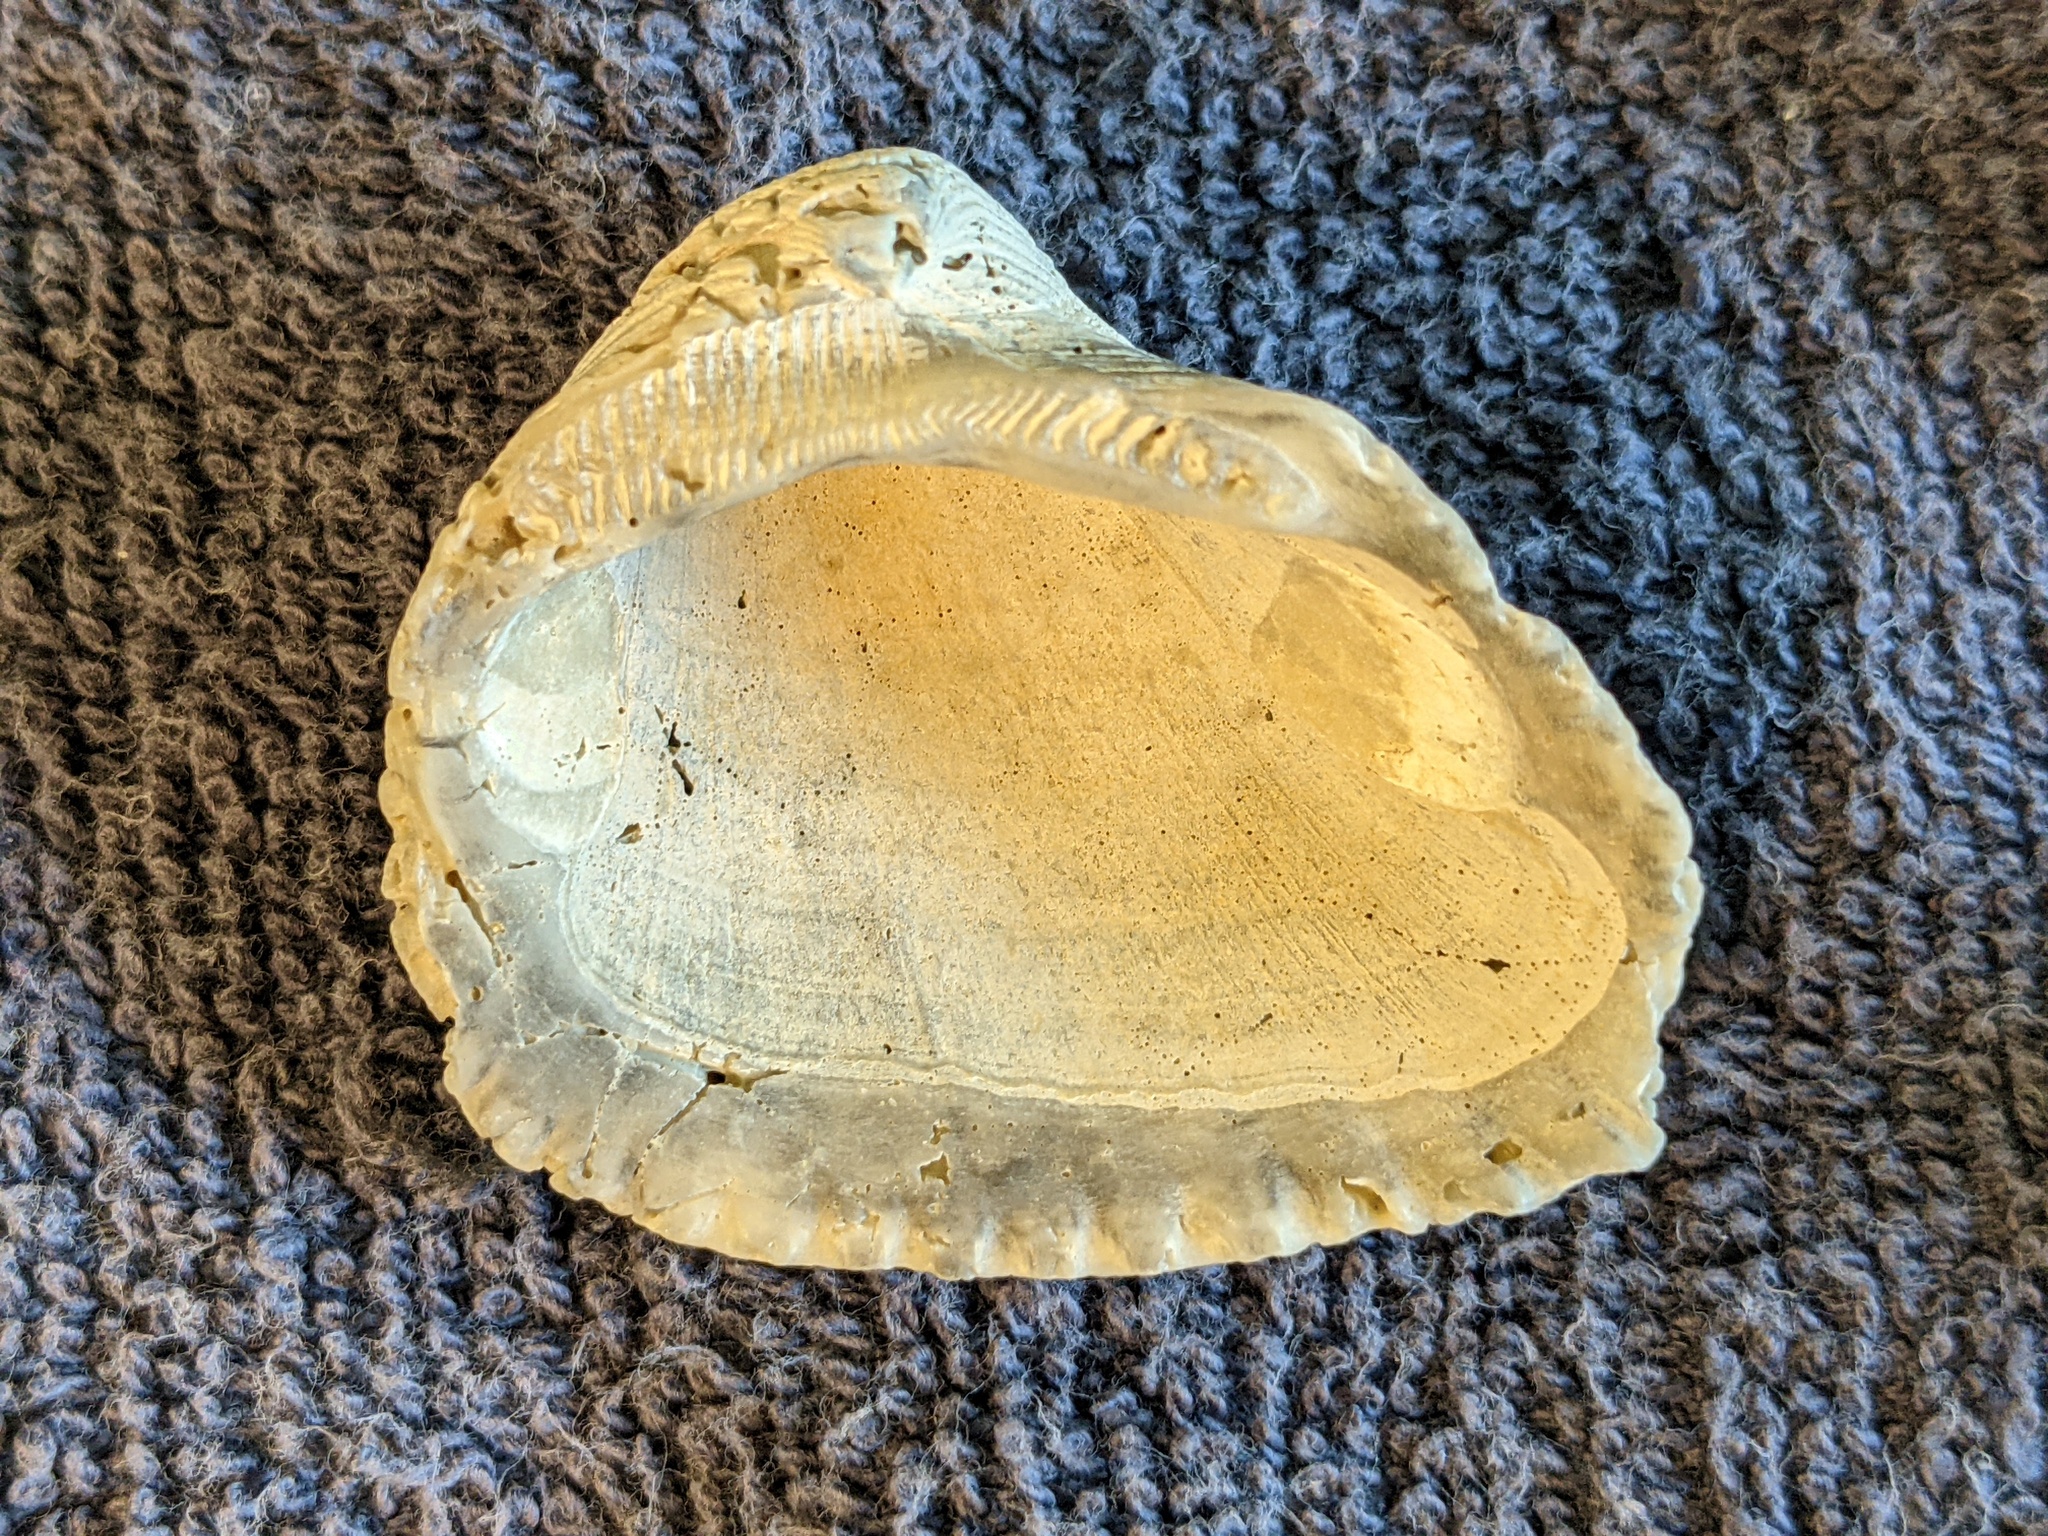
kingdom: Animalia
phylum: Mollusca
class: Bivalvia
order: Arcida
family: Noetiidae
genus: Noetia
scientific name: Noetia ponderosa
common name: Ponderous ark
